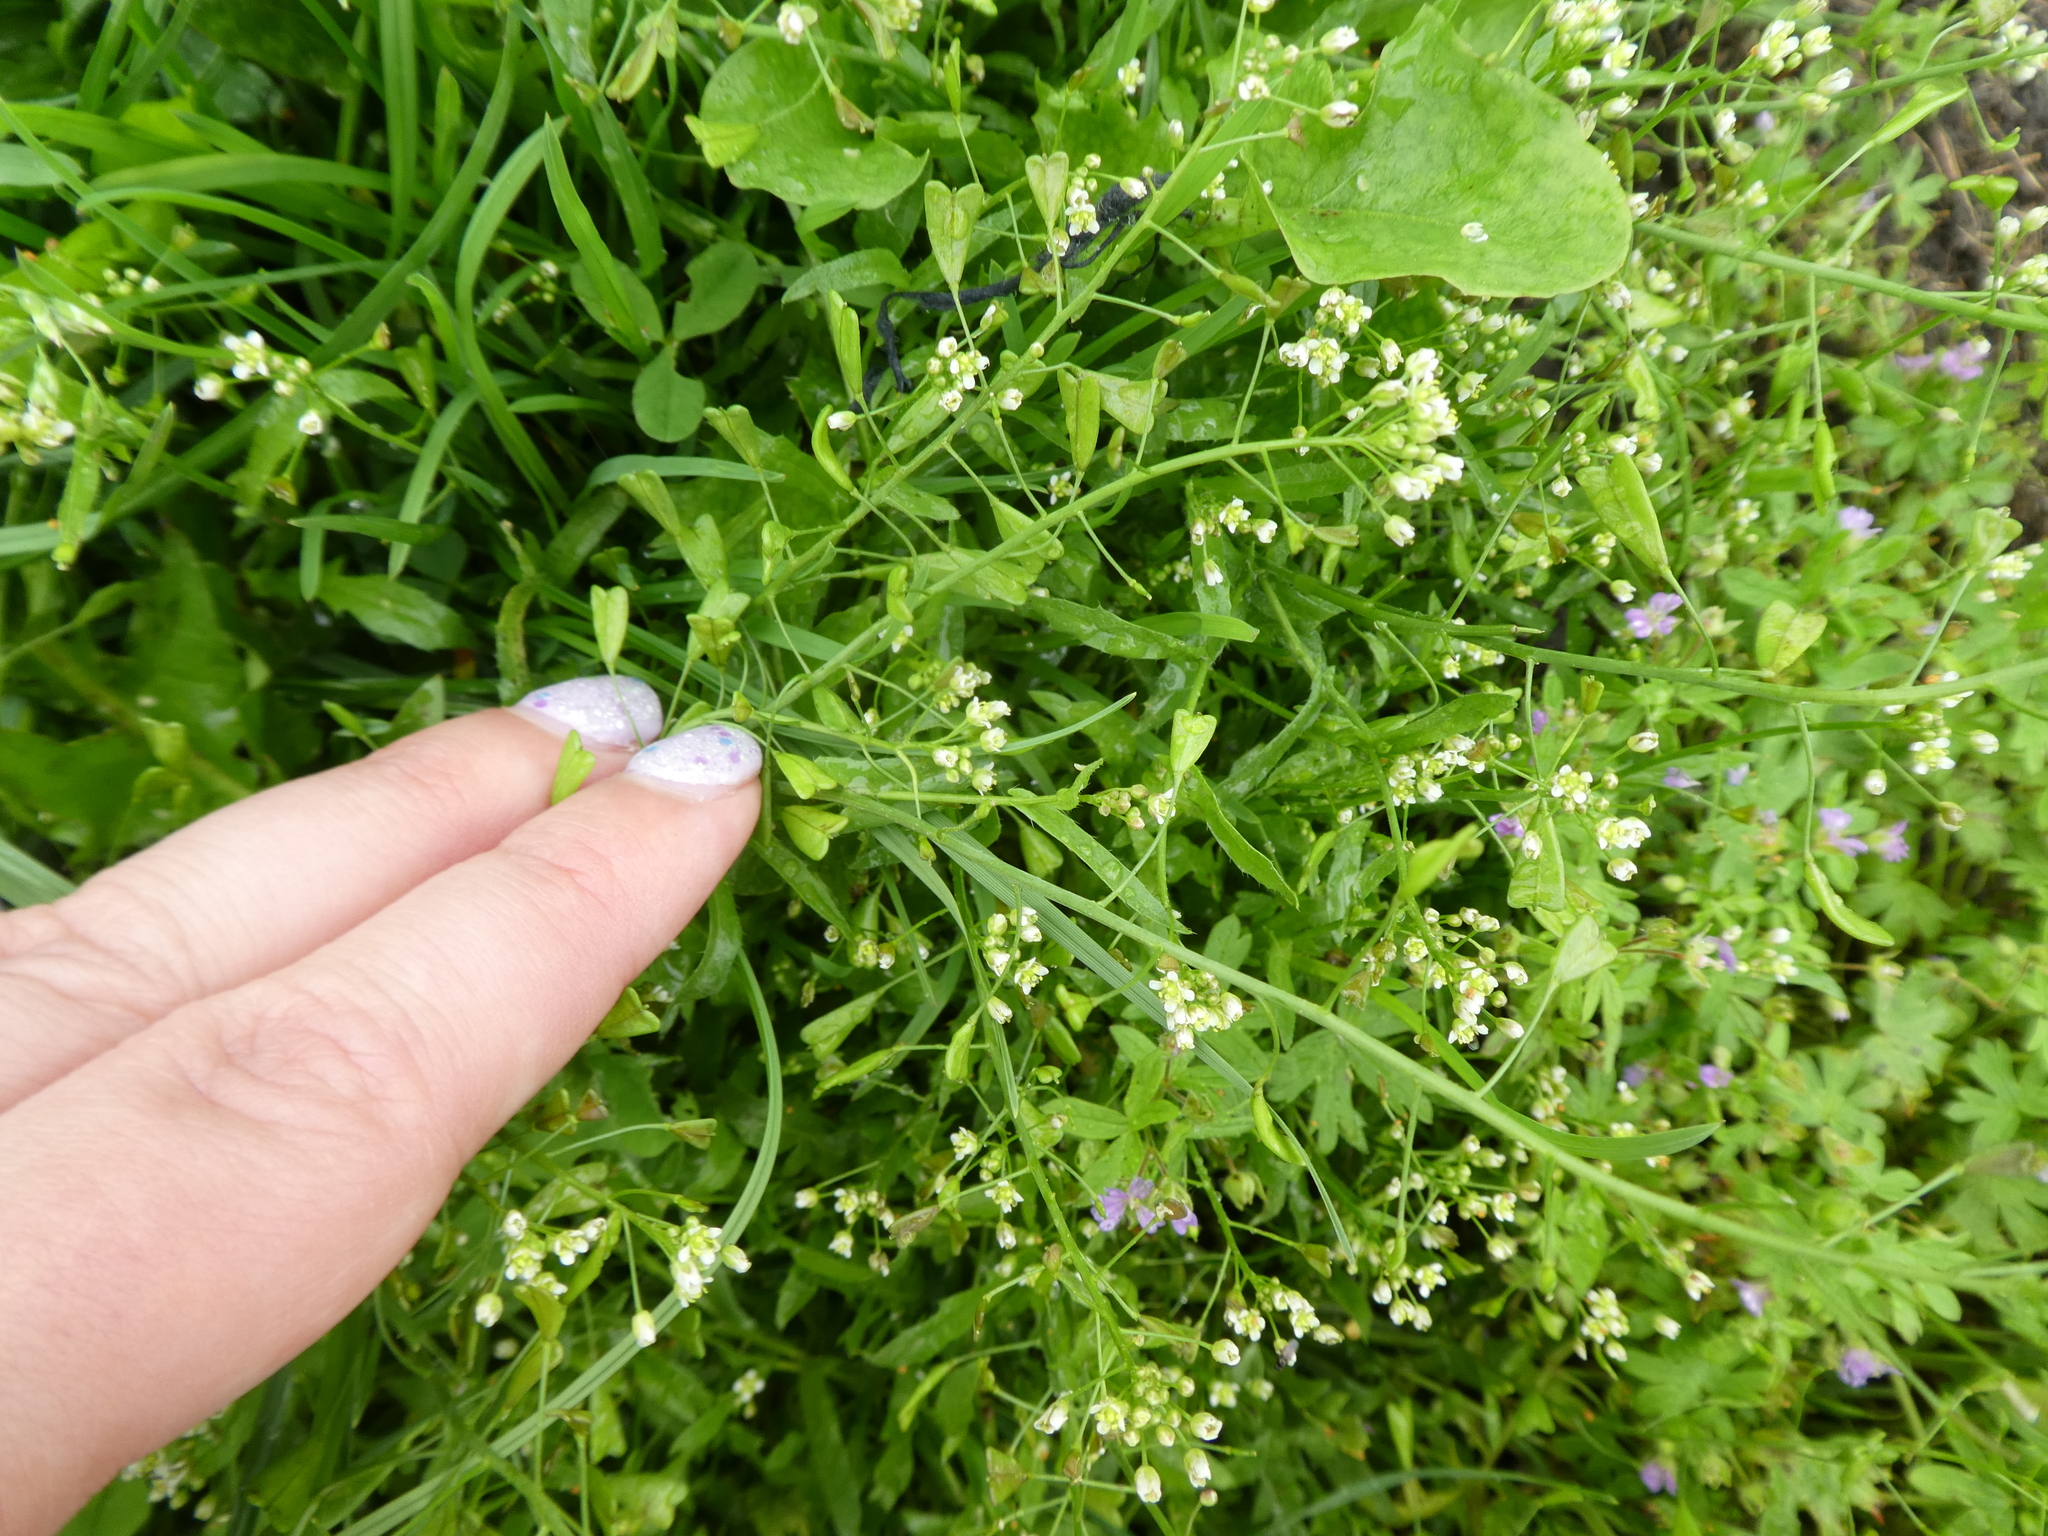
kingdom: Plantae
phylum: Tracheophyta
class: Magnoliopsida
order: Brassicales
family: Brassicaceae
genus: Capsella
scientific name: Capsella bursa-pastoris
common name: Shepherd's purse
